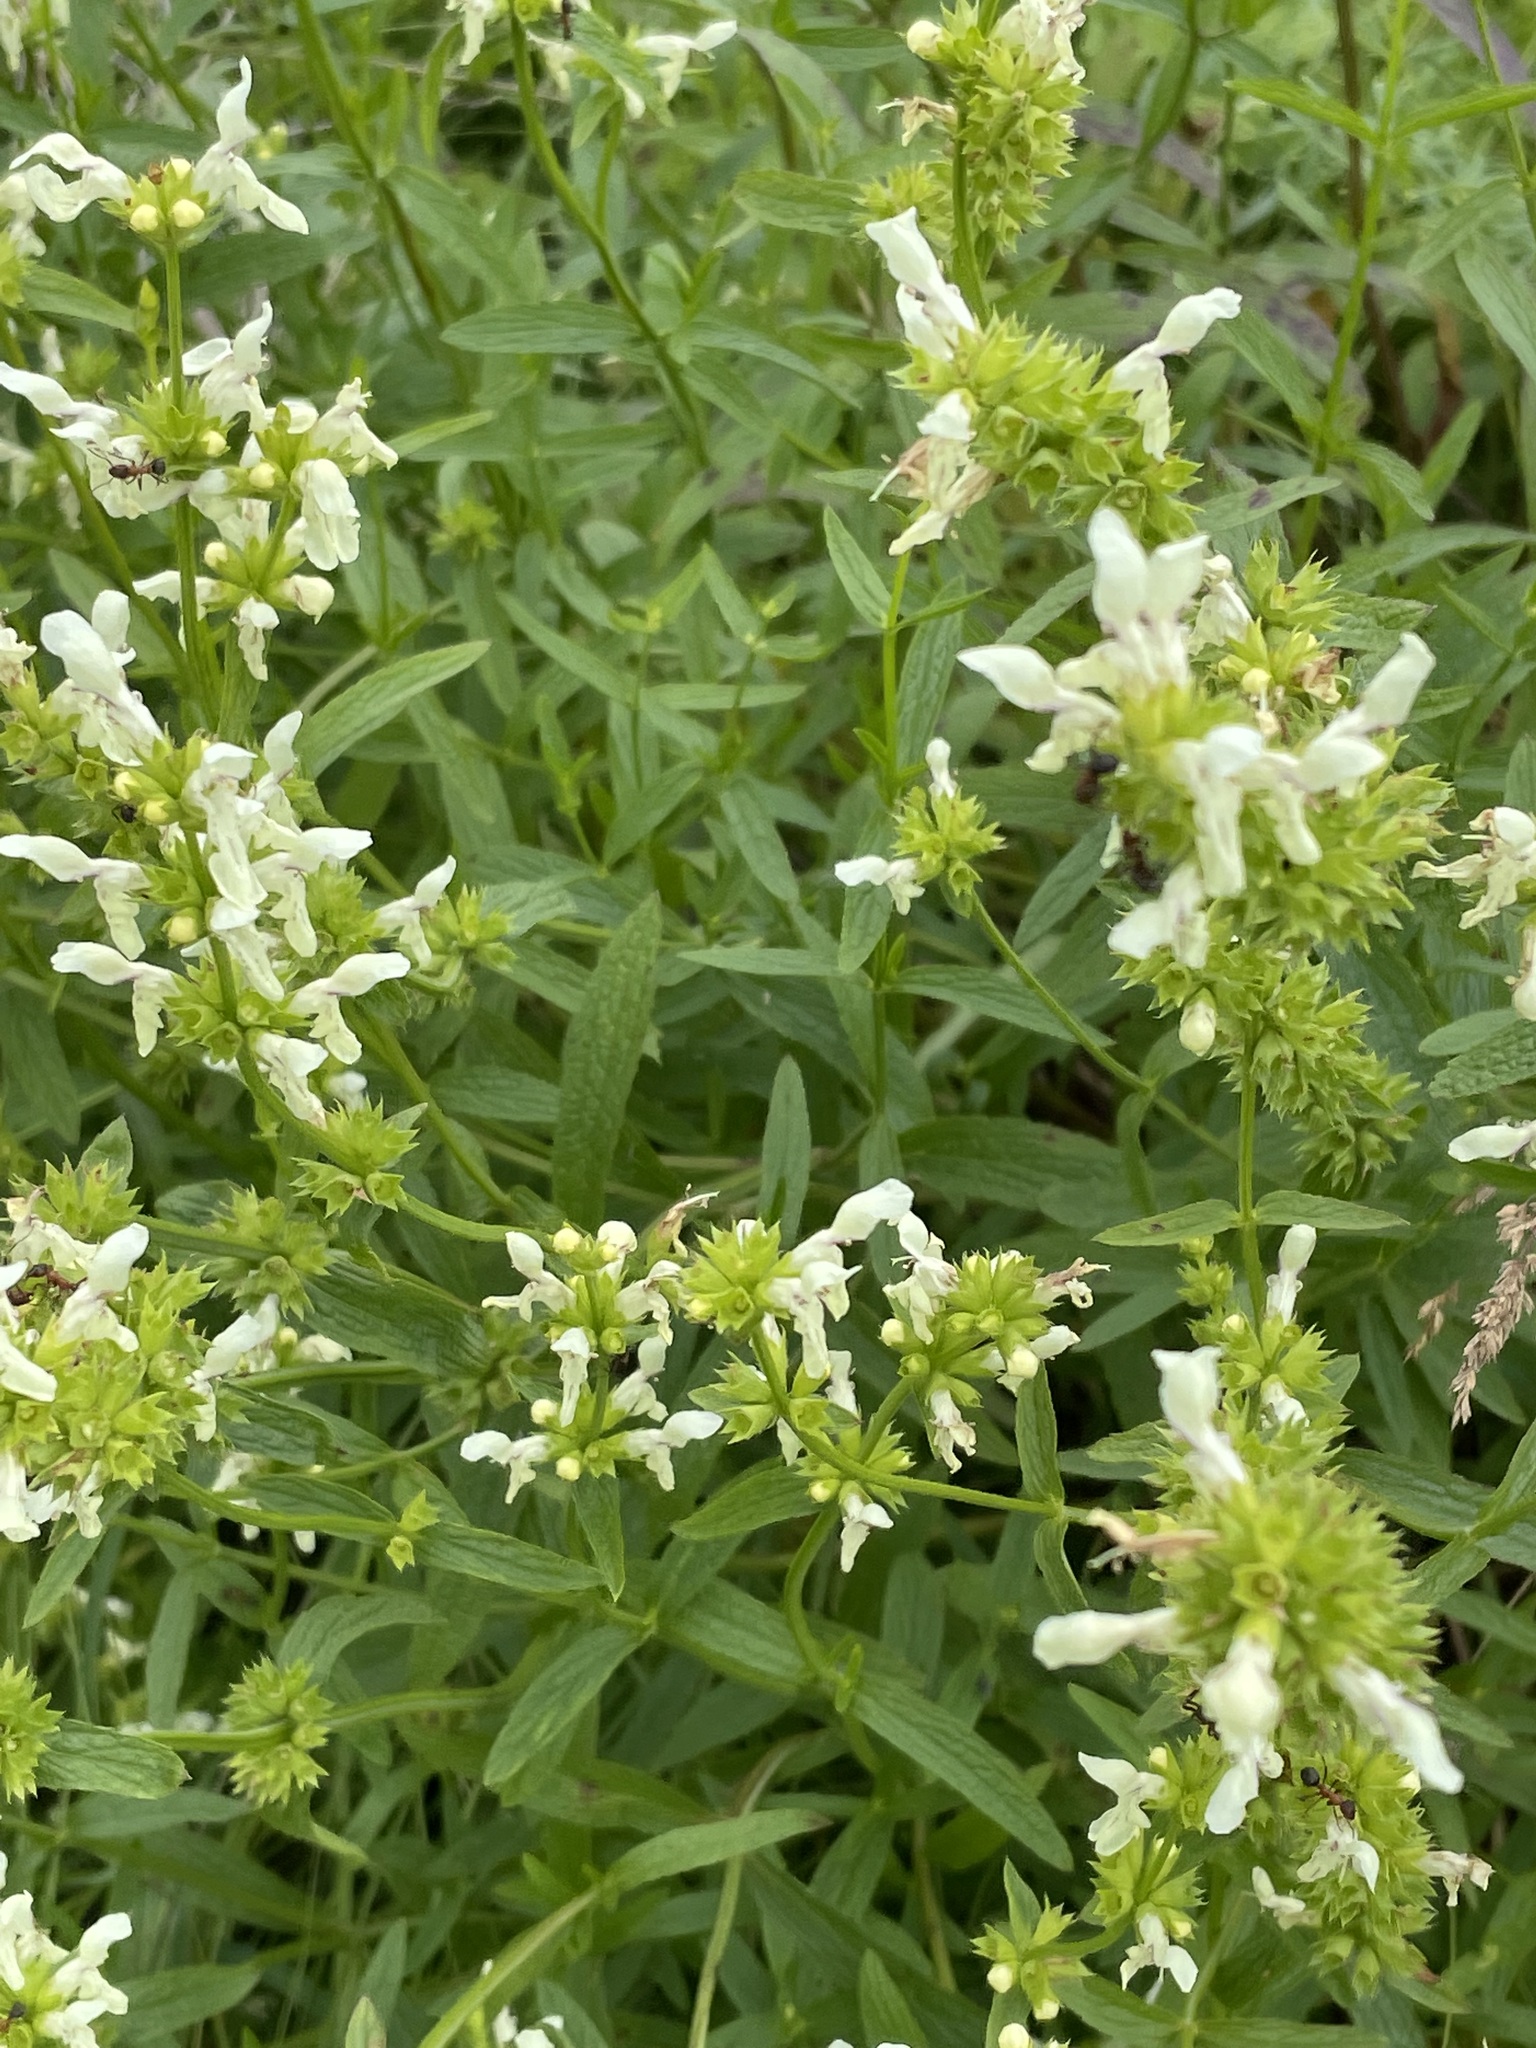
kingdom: Plantae
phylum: Tracheophyta
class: Magnoliopsida
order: Lamiales
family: Lamiaceae
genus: Stachys
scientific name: Stachys recta
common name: Perennial yellow-woundwort
